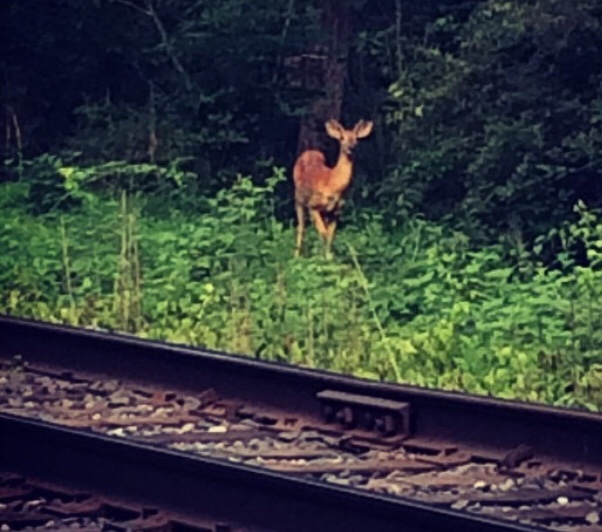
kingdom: Animalia
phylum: Chordata
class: Mammalia
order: Artiodactyla
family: Cervidae
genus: Odocoileus
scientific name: Odocoileus virginianus
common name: White-tailed deer
